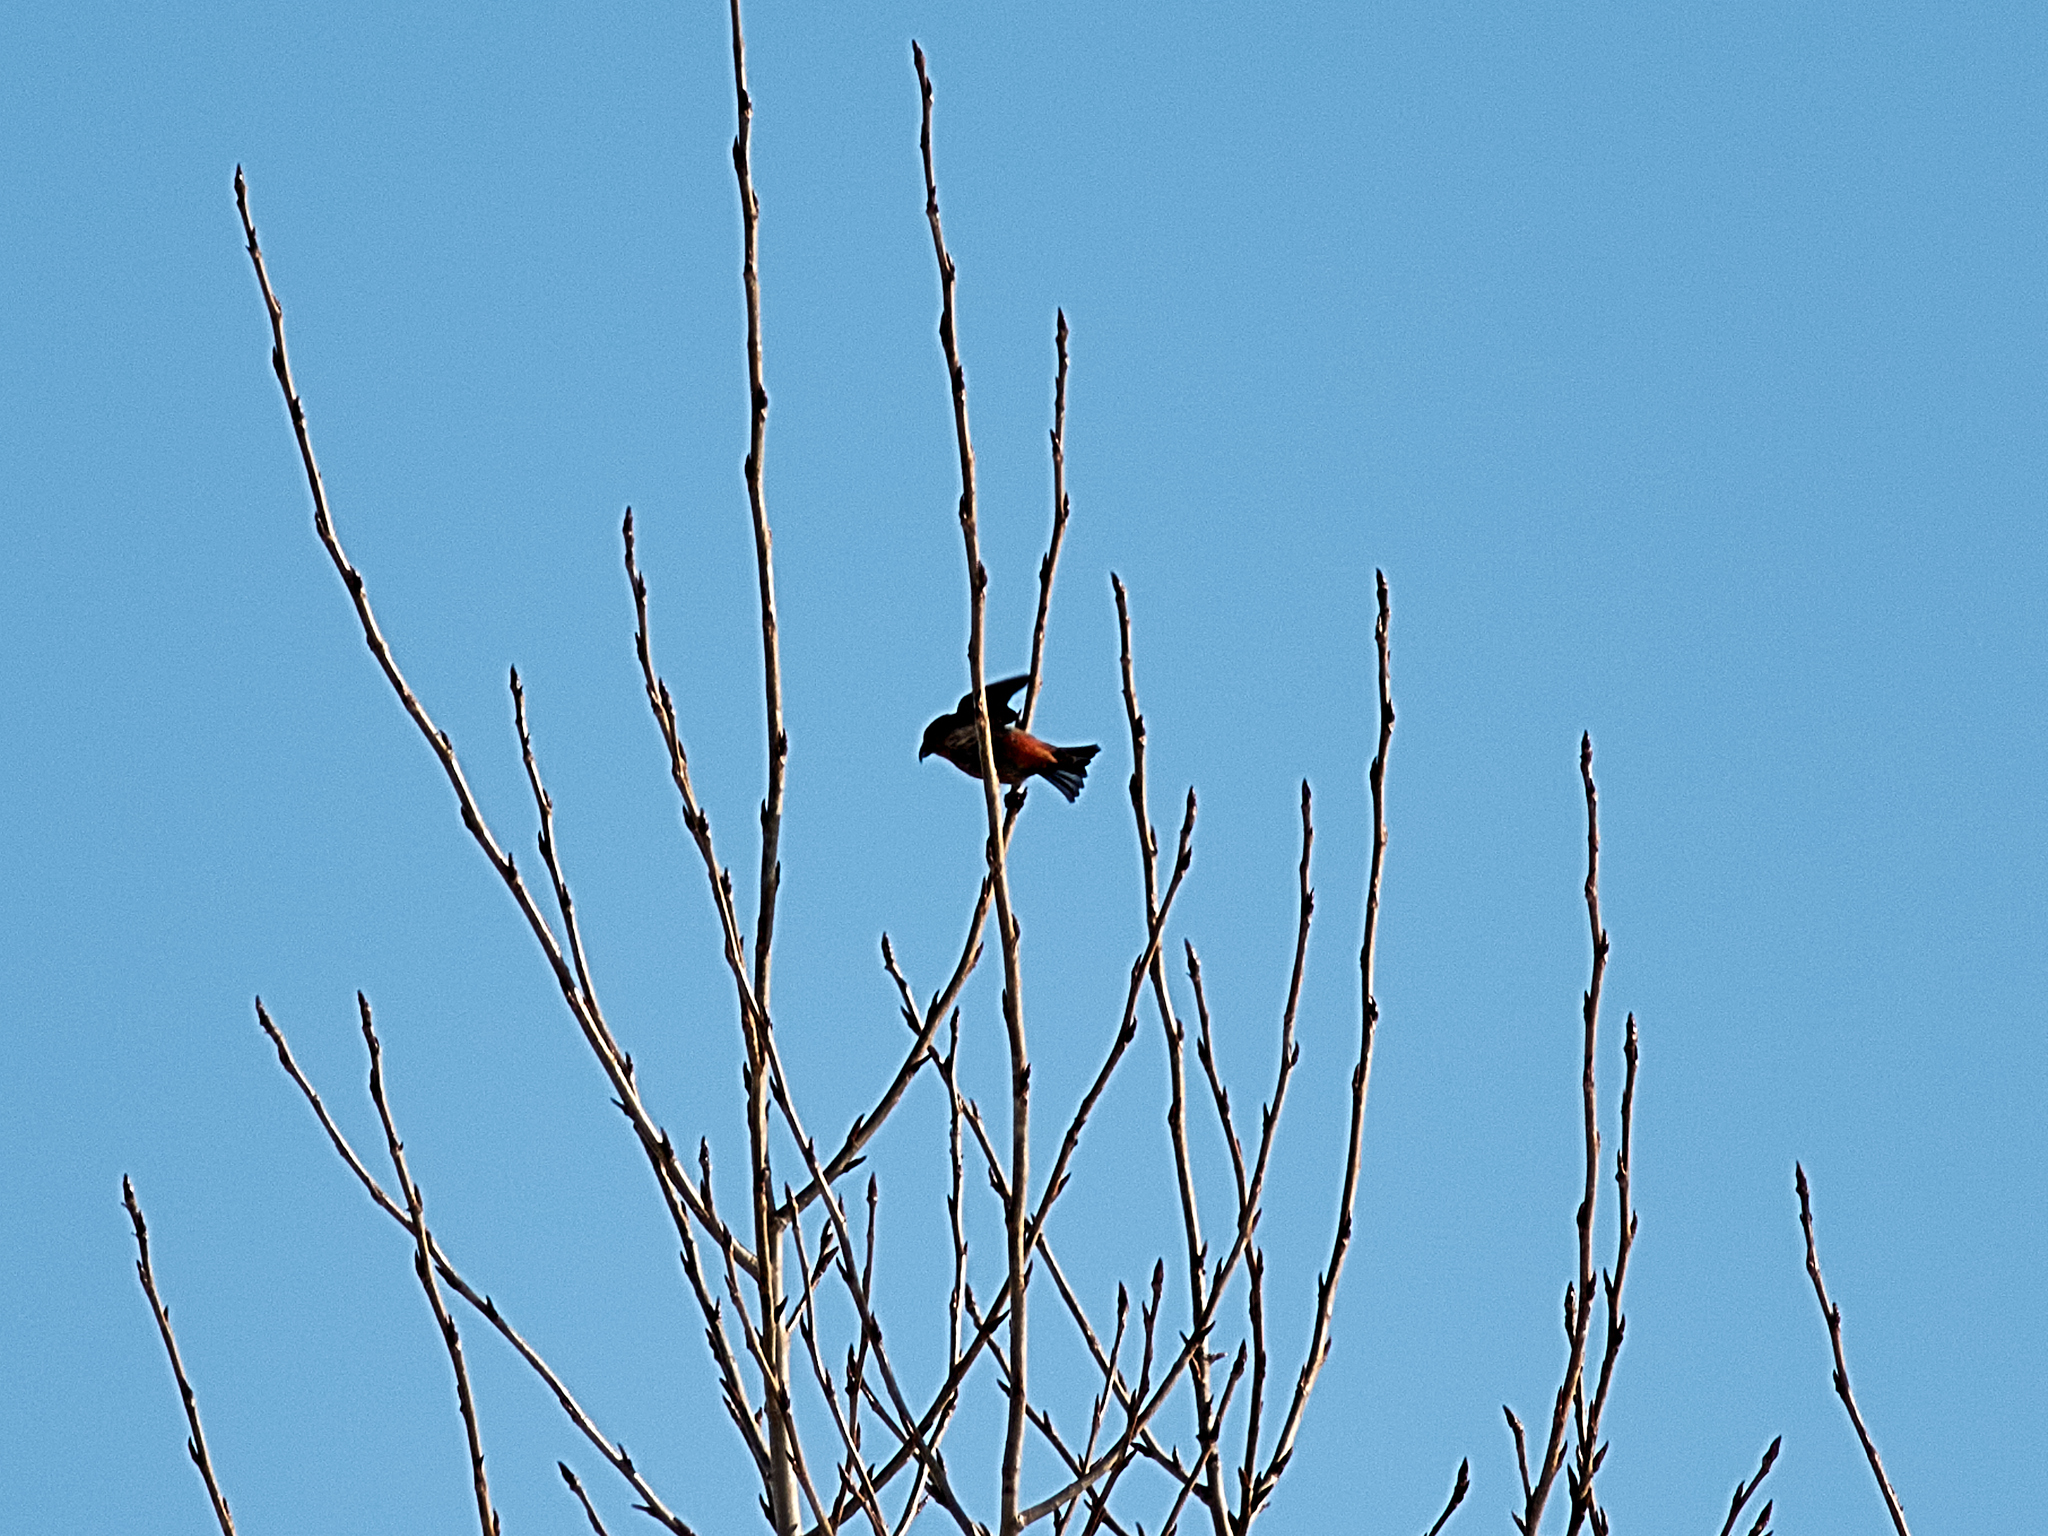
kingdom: Animalia
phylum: Chordata
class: Aves
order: Passeriformes
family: Fringillidae
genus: Loxia
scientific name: Loxia curvirostra
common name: Red crossbill
